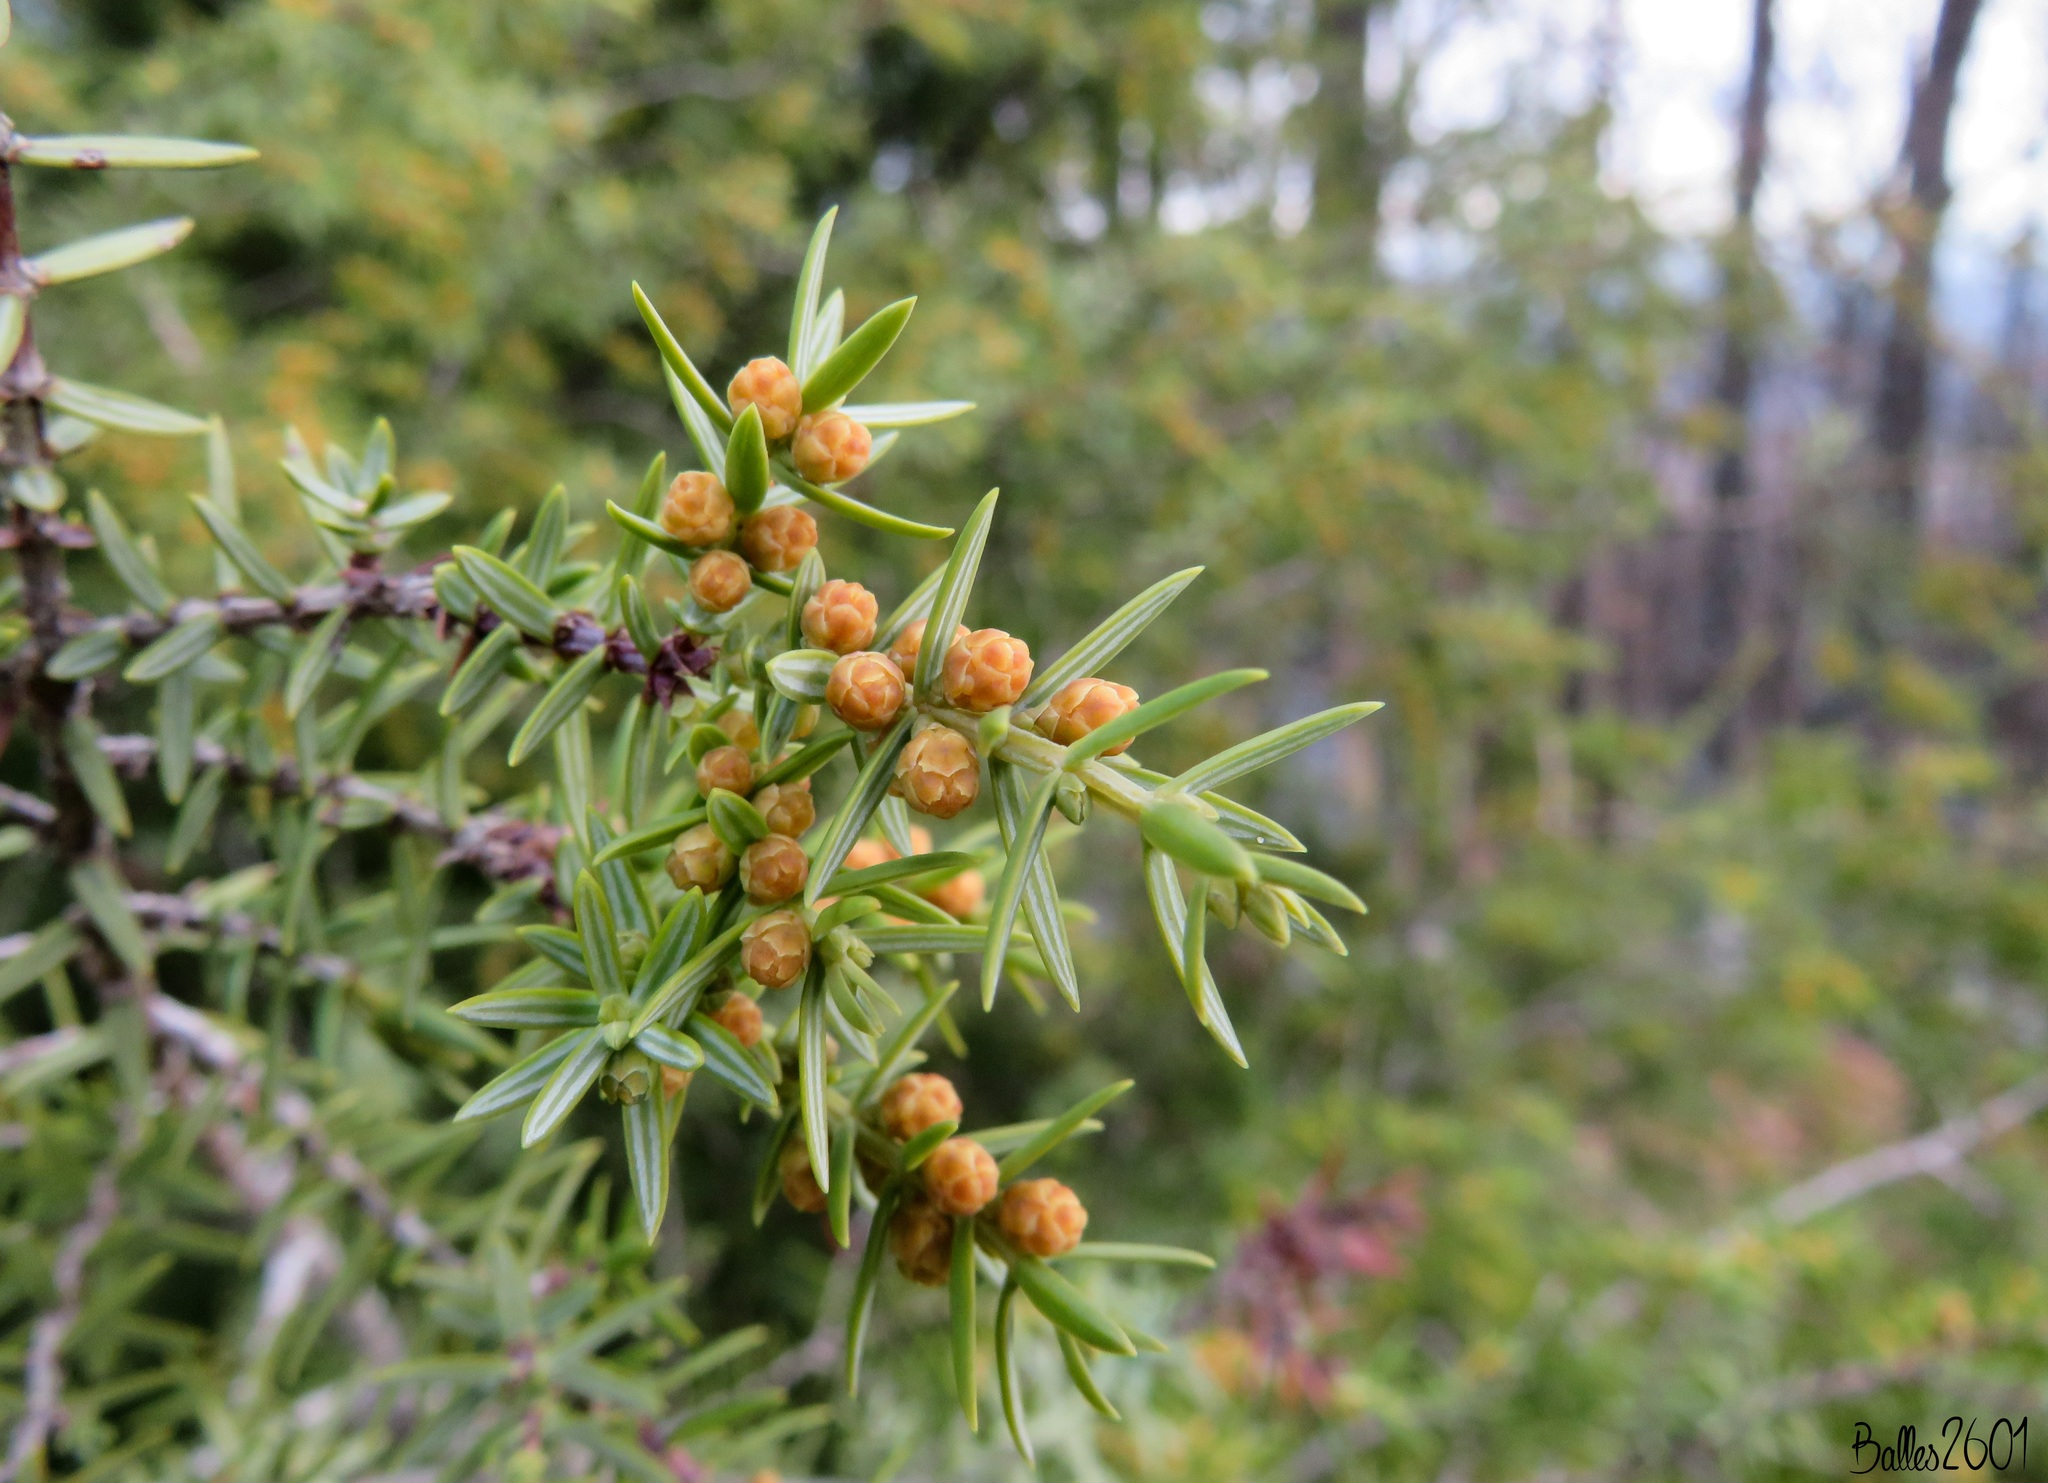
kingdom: Plantae
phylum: Tracheophyta
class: Pinopsida
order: Pinales
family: Cupressaceae
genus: Juniperus
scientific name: Juniperus oxycedrus
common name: Prickly juniper
